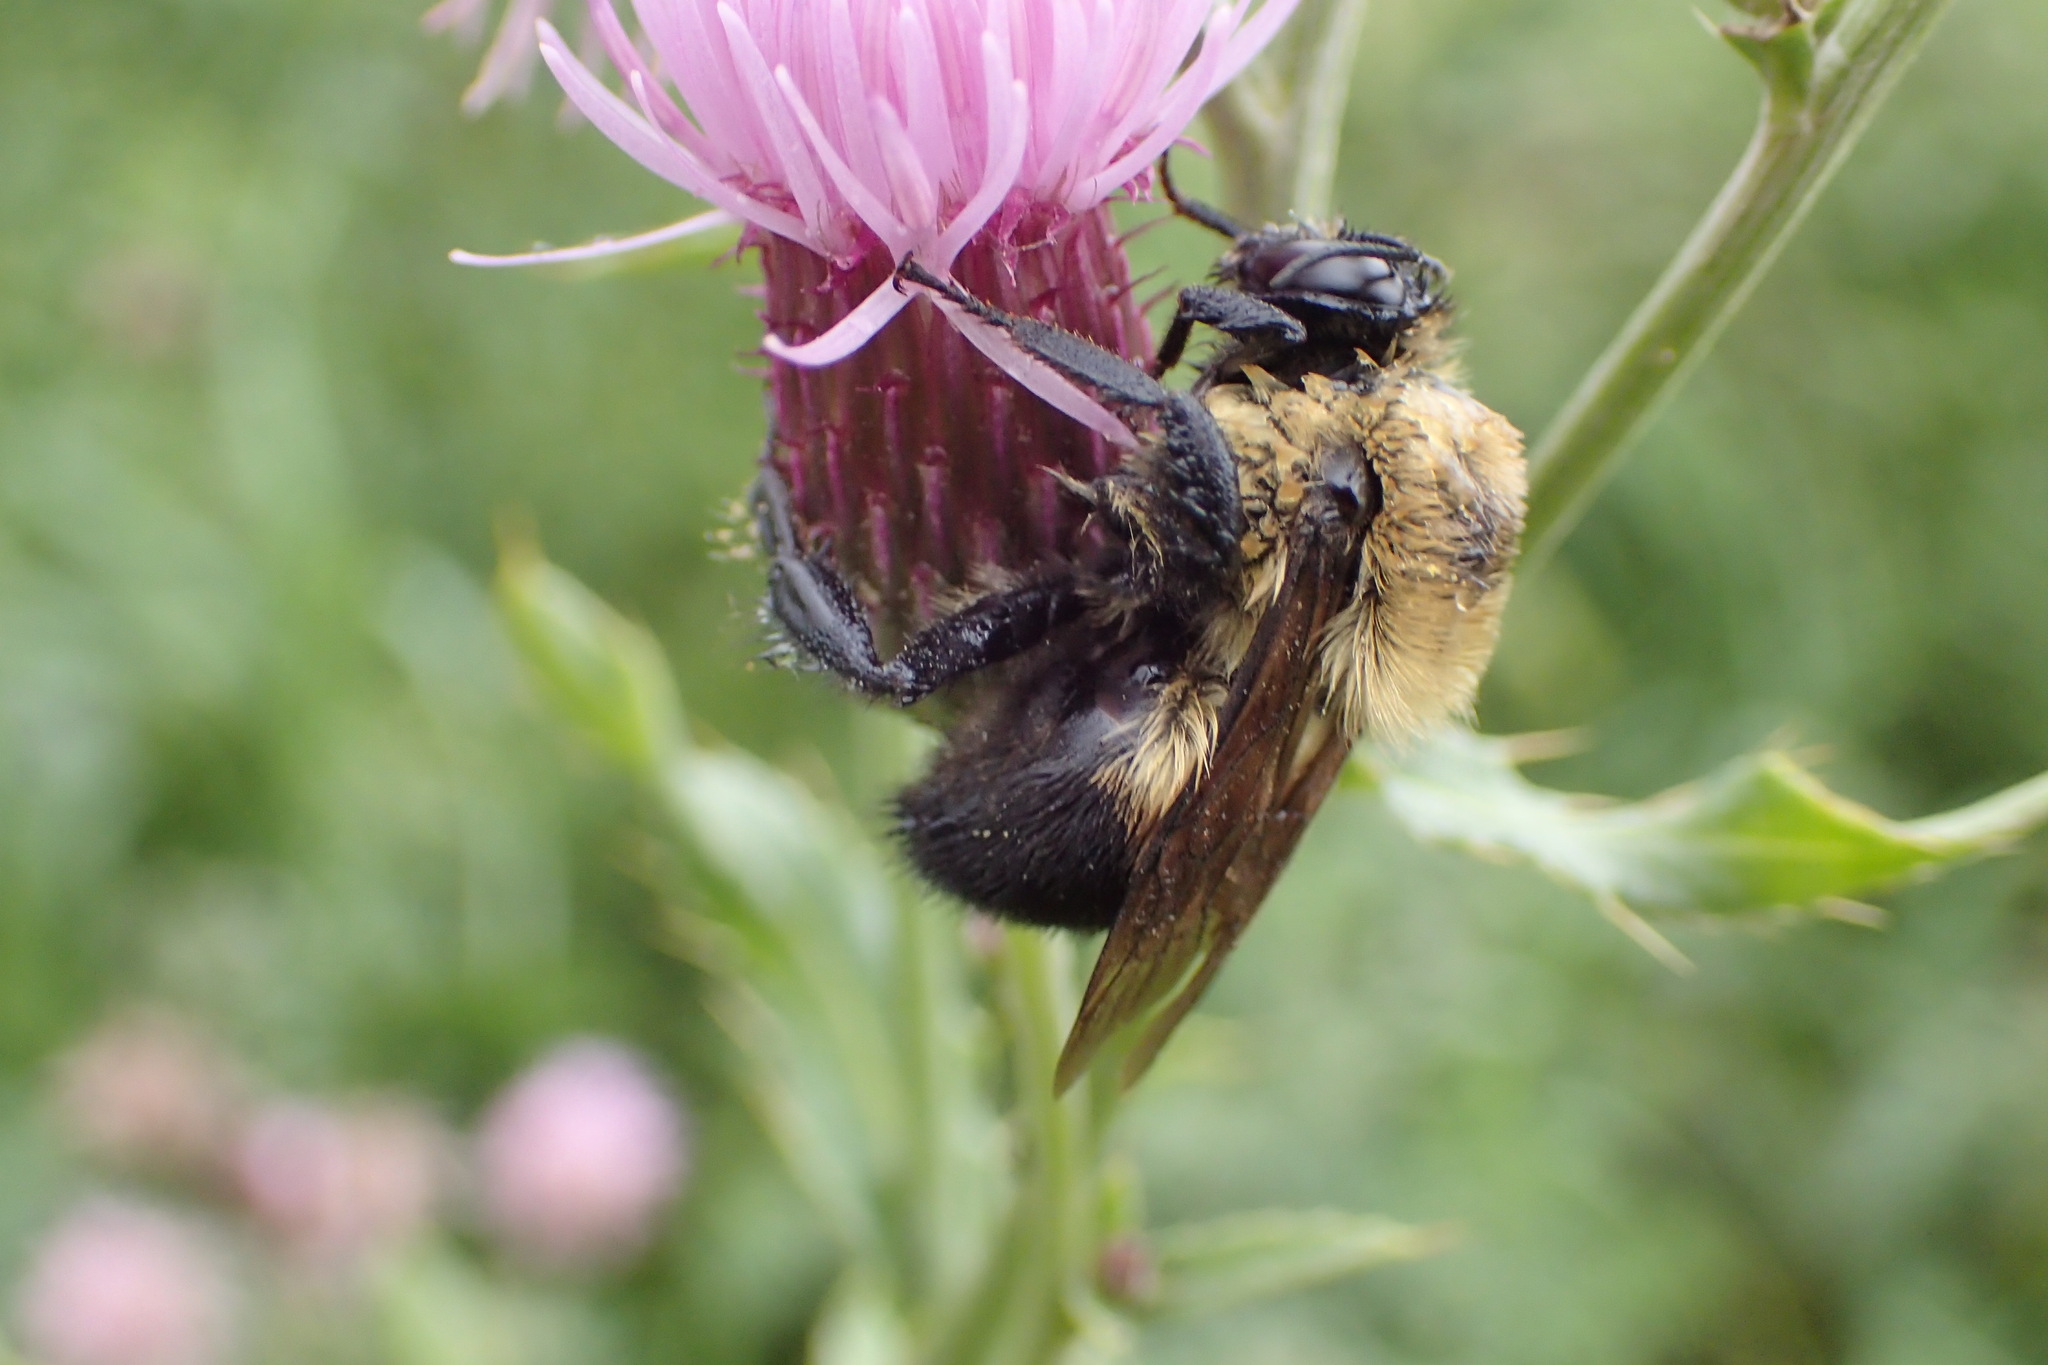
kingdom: Animalia
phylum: Arthropoda
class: Insecta
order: Hymenoptera
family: Apidae
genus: Bombus
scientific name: Bombus griseocollis
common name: Brown-belted bumble bee
